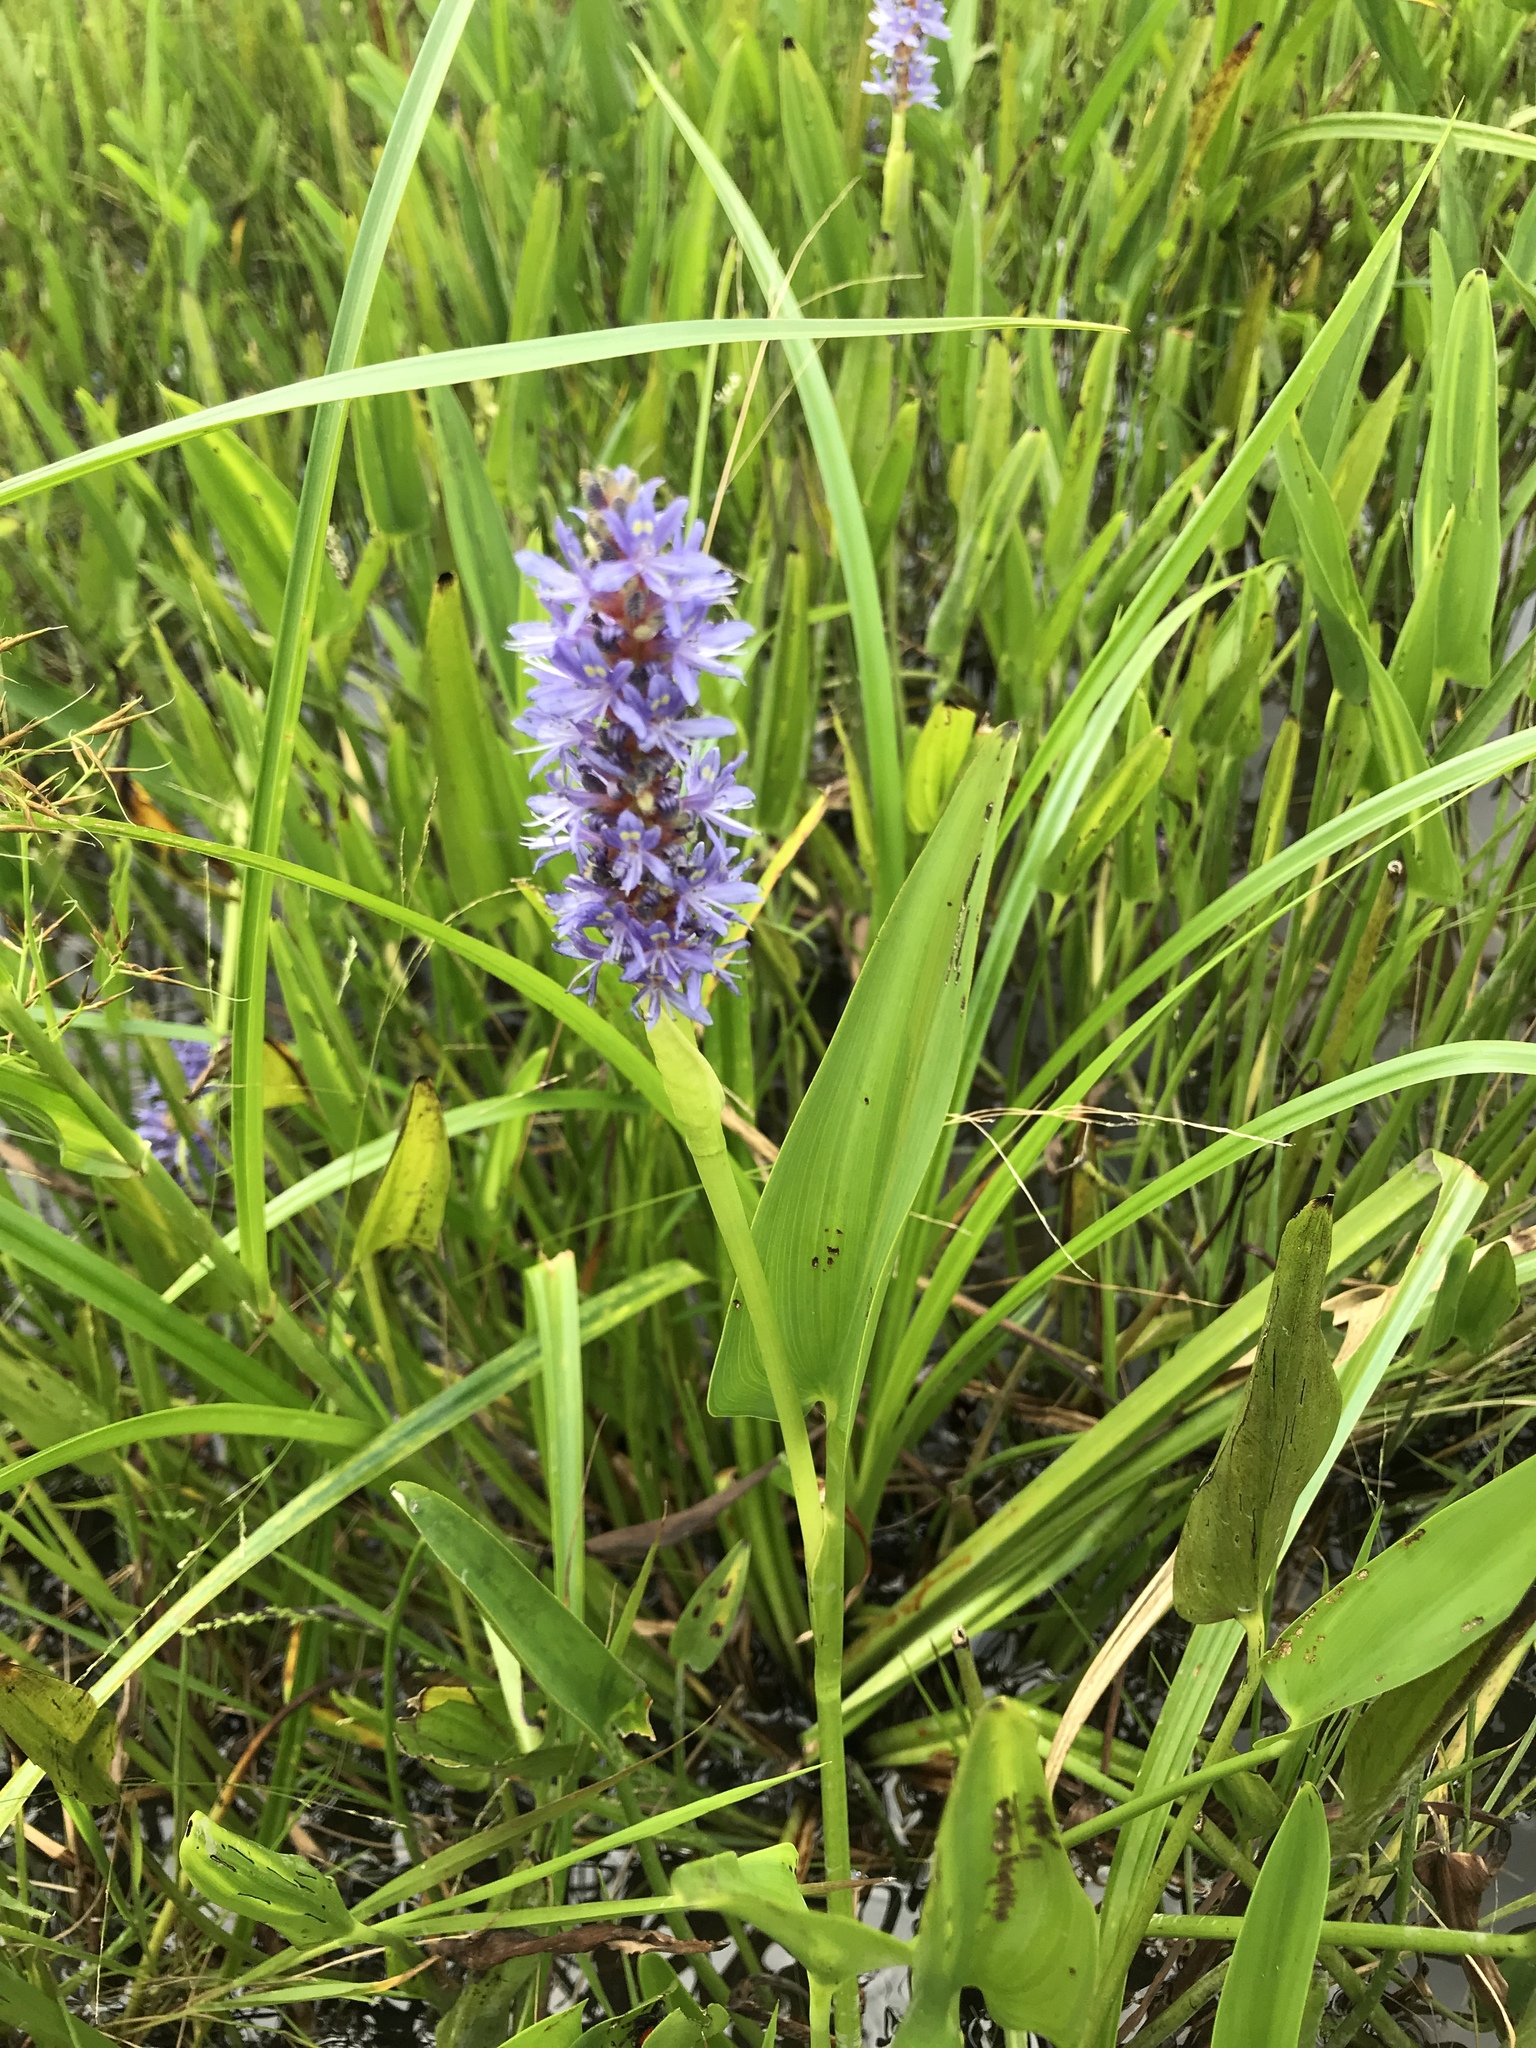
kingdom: Plantae
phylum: Tracheophyta
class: Liliopsida
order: Commelinales
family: Pontederiaceae
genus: Pontederia
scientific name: Pontederia cordata
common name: Pickerelweed
